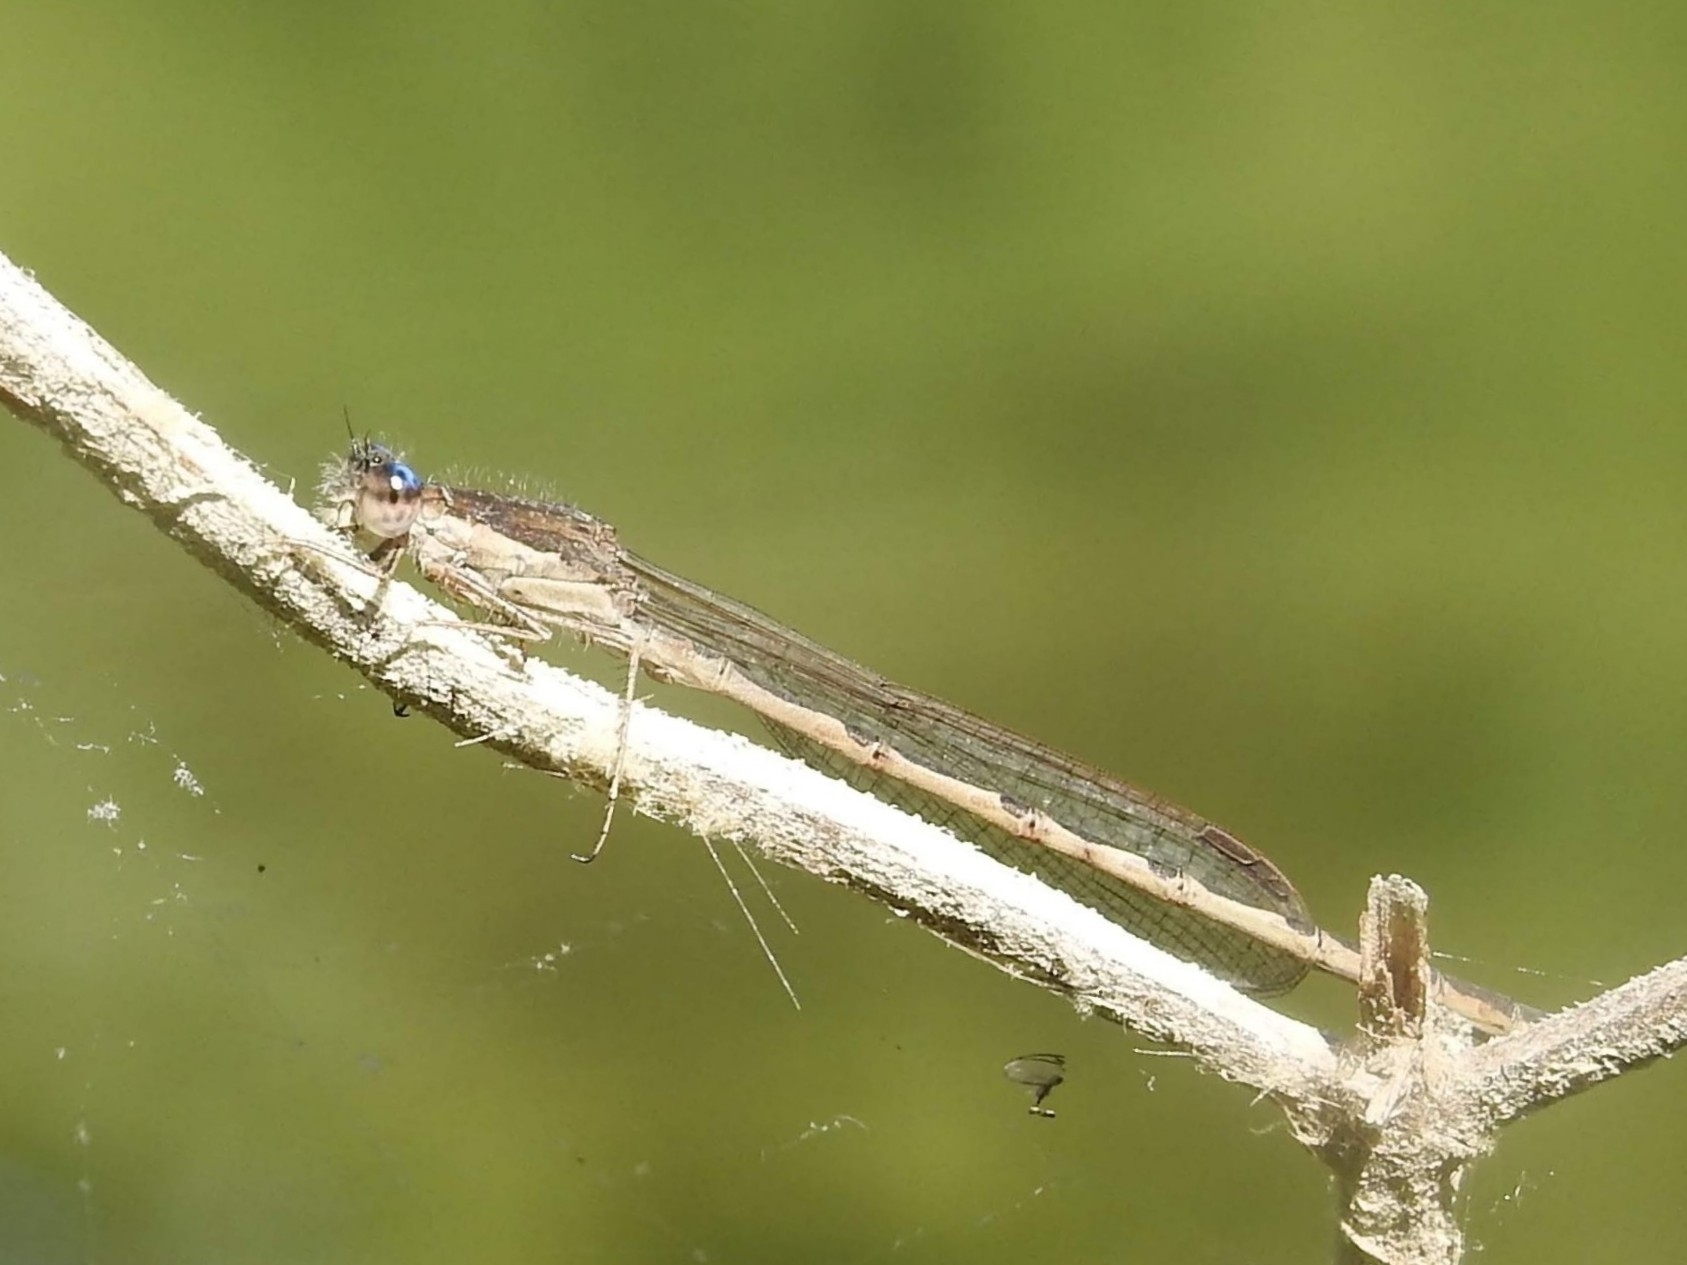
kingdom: Animalia
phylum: Arthropoda
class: Insecta
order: Odonata
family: Lestidae
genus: Sympecma
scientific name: Sympecma fusca
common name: Common winter damsel
